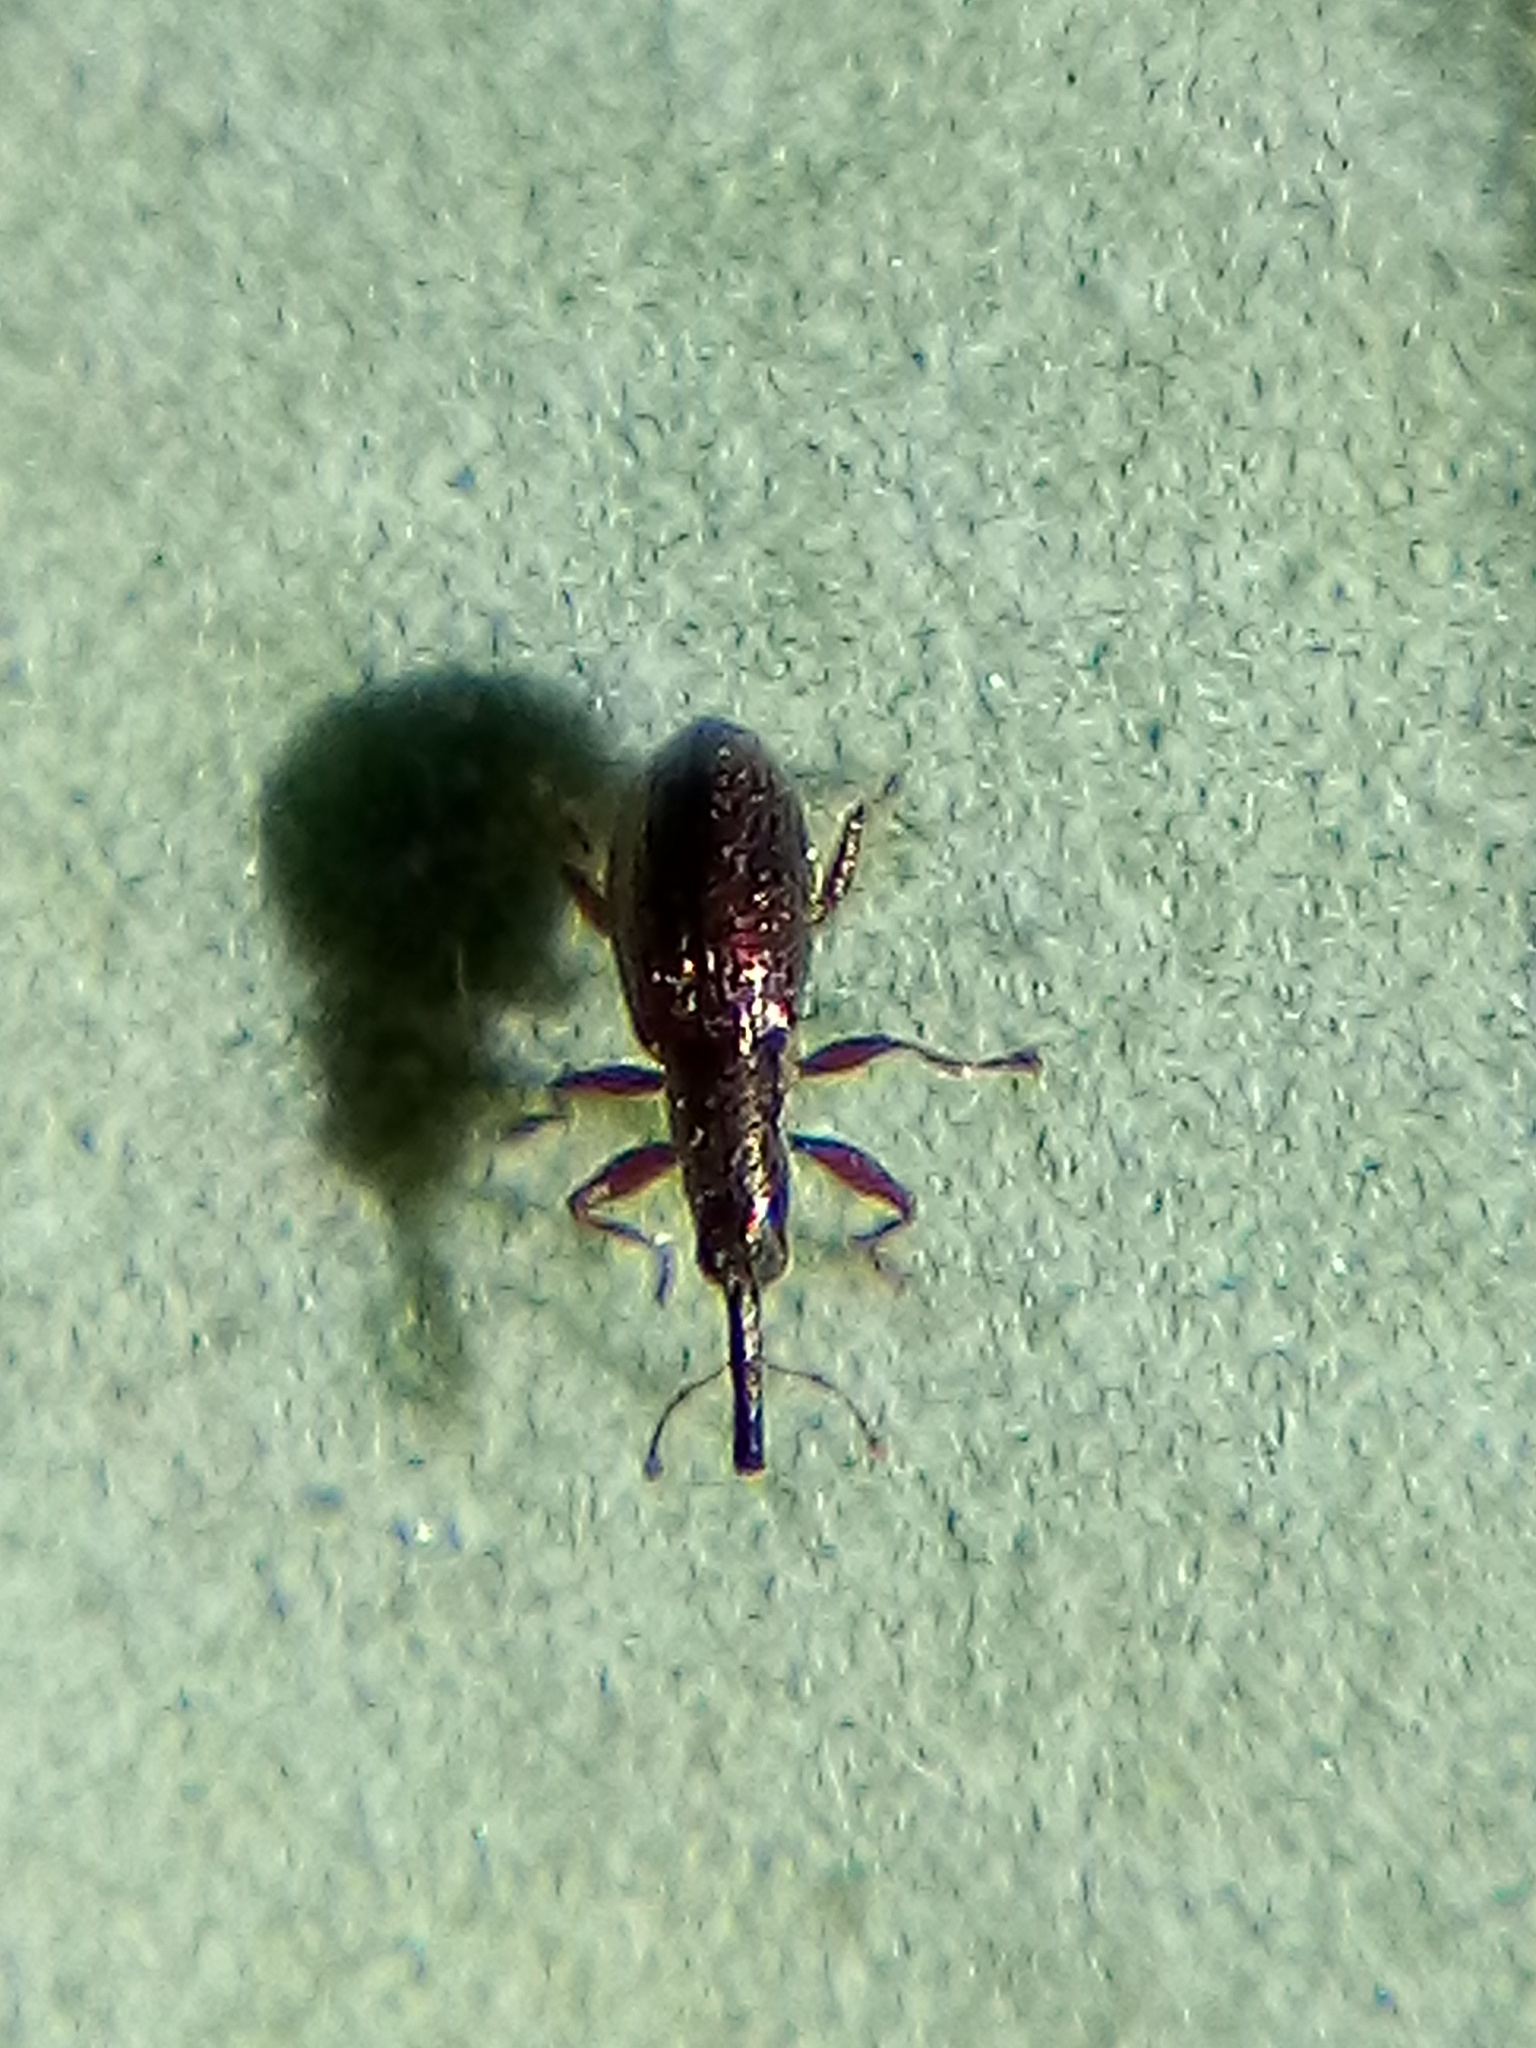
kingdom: Animalia
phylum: Arthropoda
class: Insecta
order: Coleoptera
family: Brentidae
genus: Neocyba
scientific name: Neocyba metrosideros
